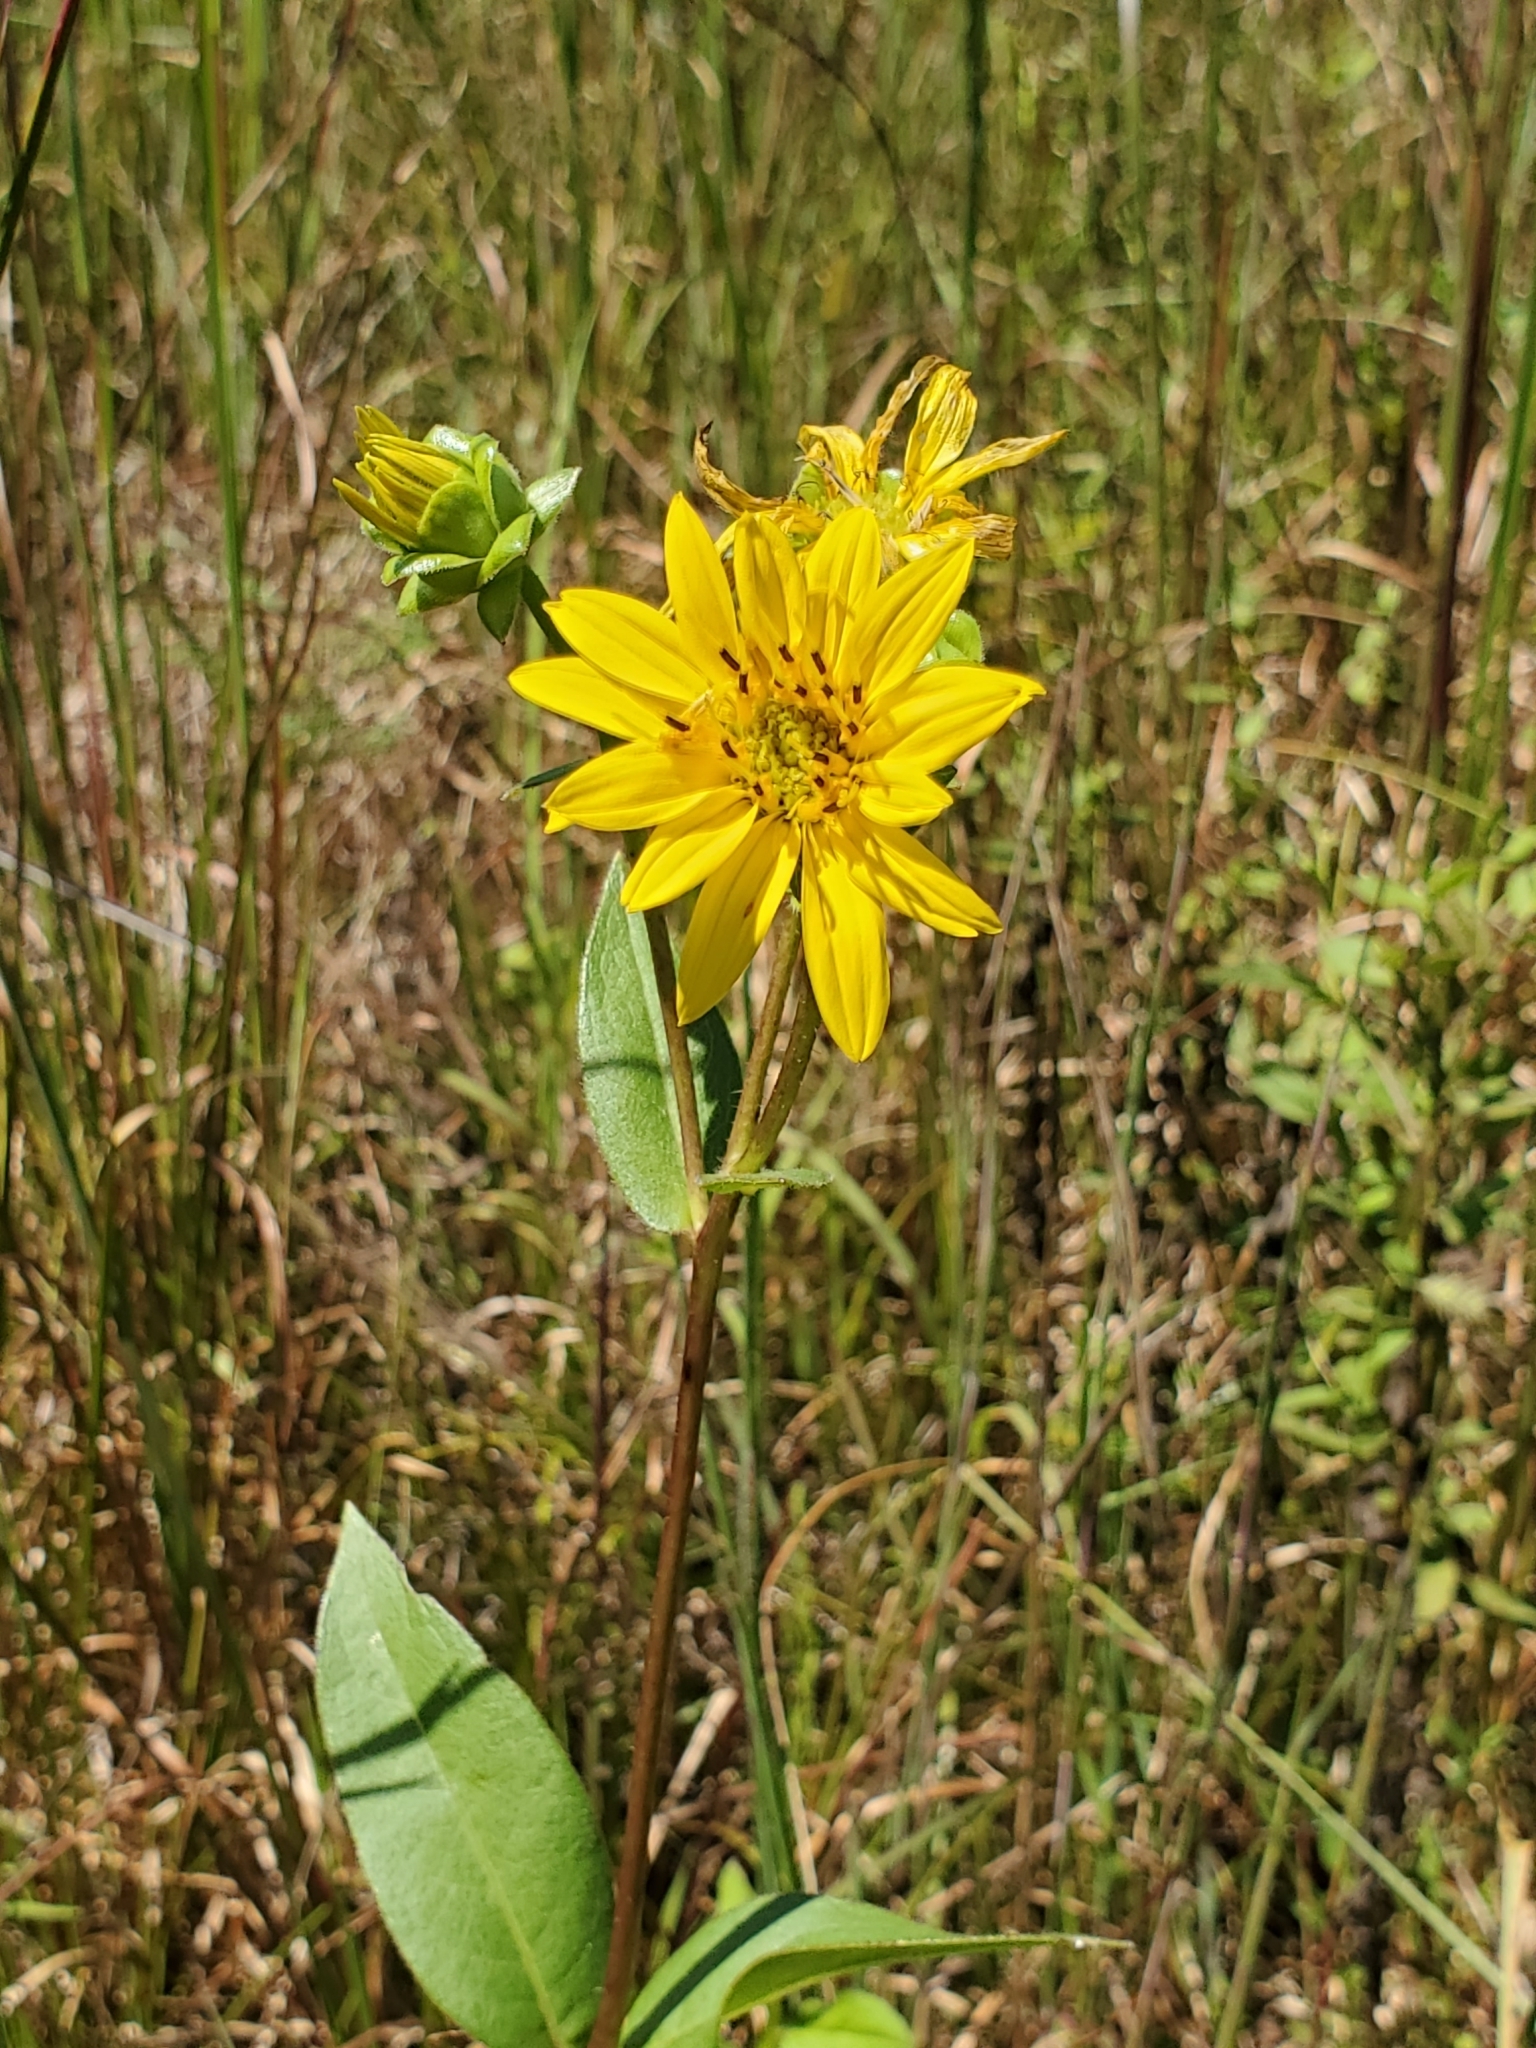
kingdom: Plantae
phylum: Tracheophyta
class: Magnoliopsida
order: Asterales
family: Asteraceae
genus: Silphium
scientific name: Silphium integrifolium
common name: Whole-leaf rosinweed
